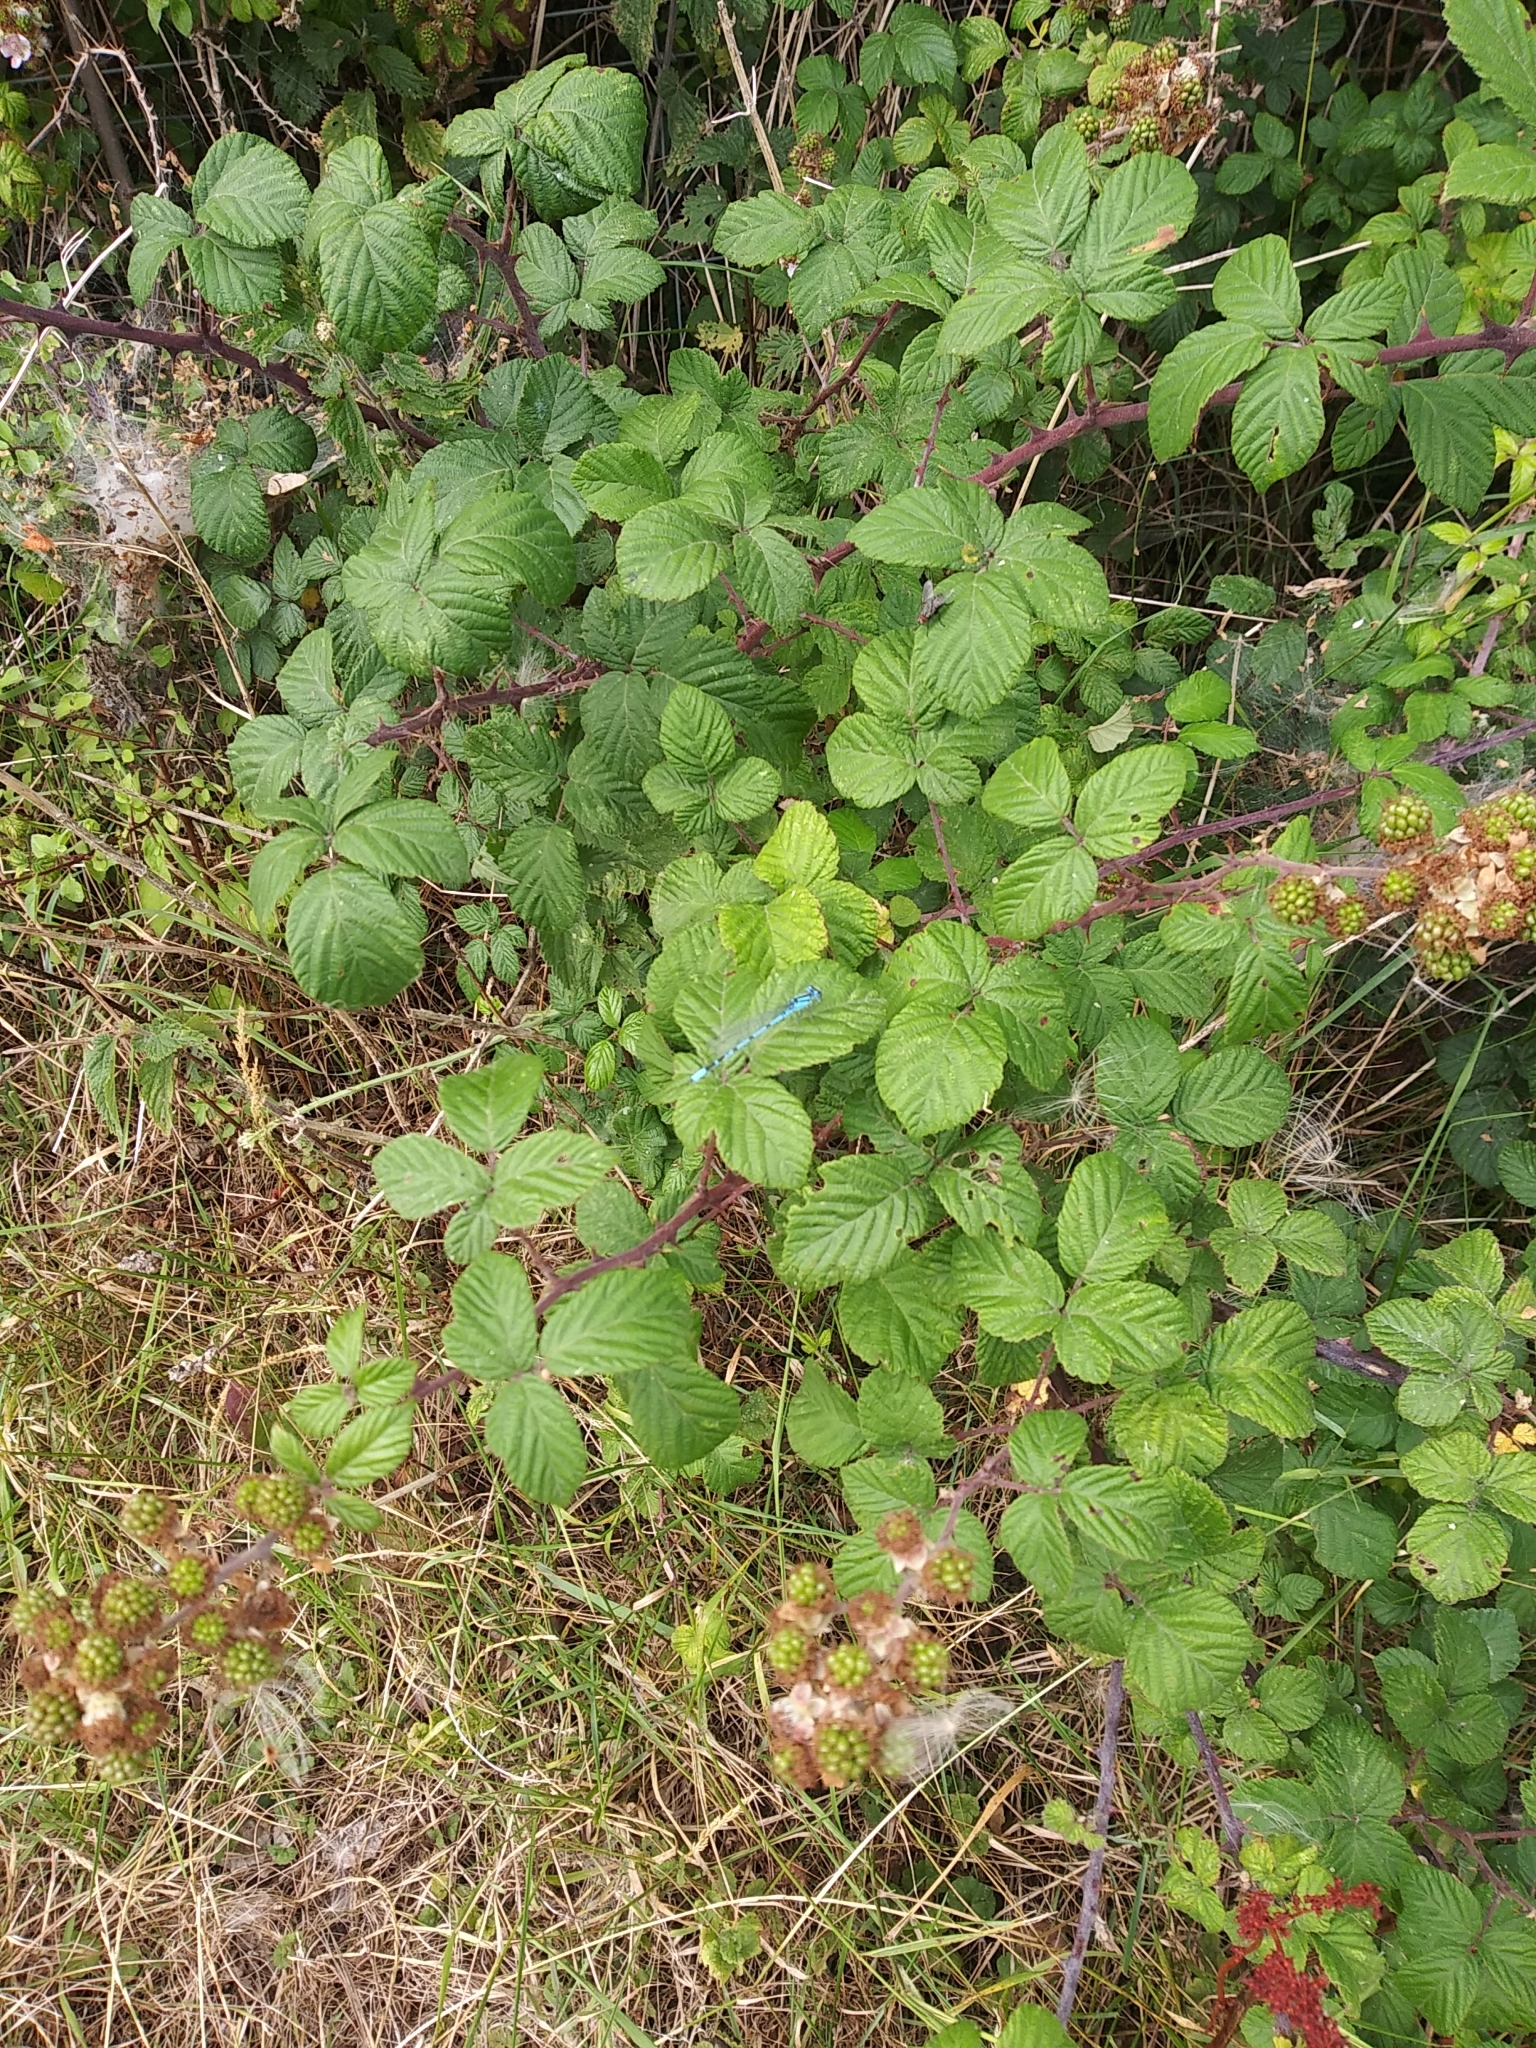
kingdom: Animalia
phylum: Arthropoda
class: Insecta
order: Odonata
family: Coenagrionidae
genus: Enallagma
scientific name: Enallagma cyathigerum
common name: Common blue damselfly
